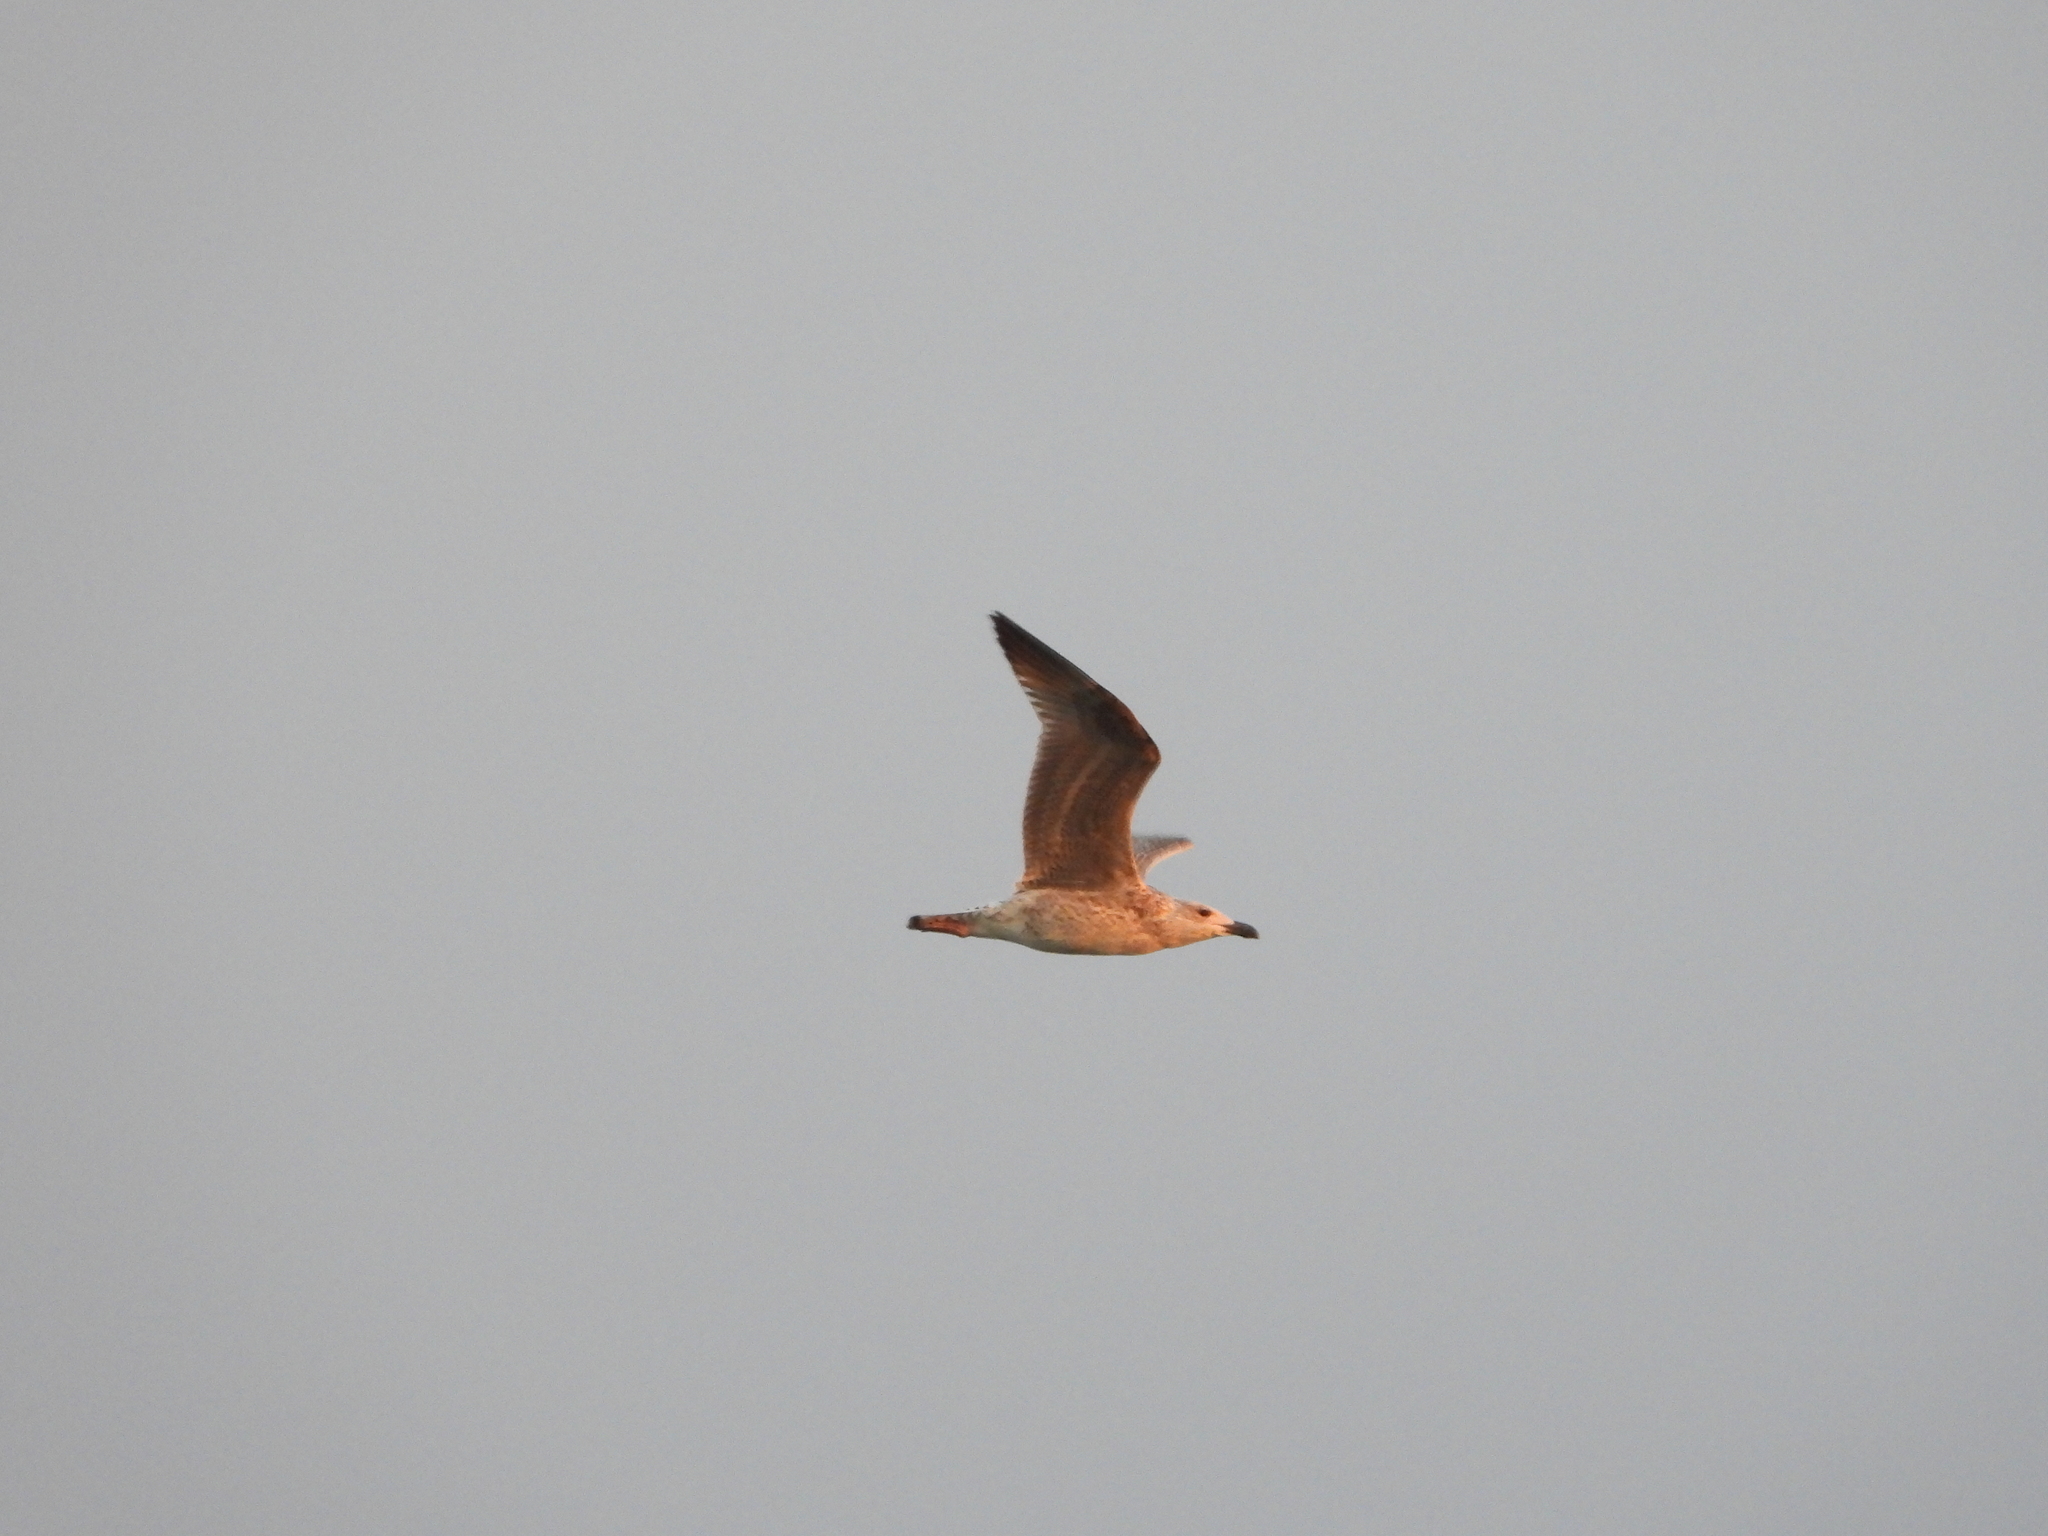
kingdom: Animalia
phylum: Chordata
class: Aves
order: Charadriiformes
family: Laridae
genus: Larus
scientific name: Larus marinus
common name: Great black-backed gull
